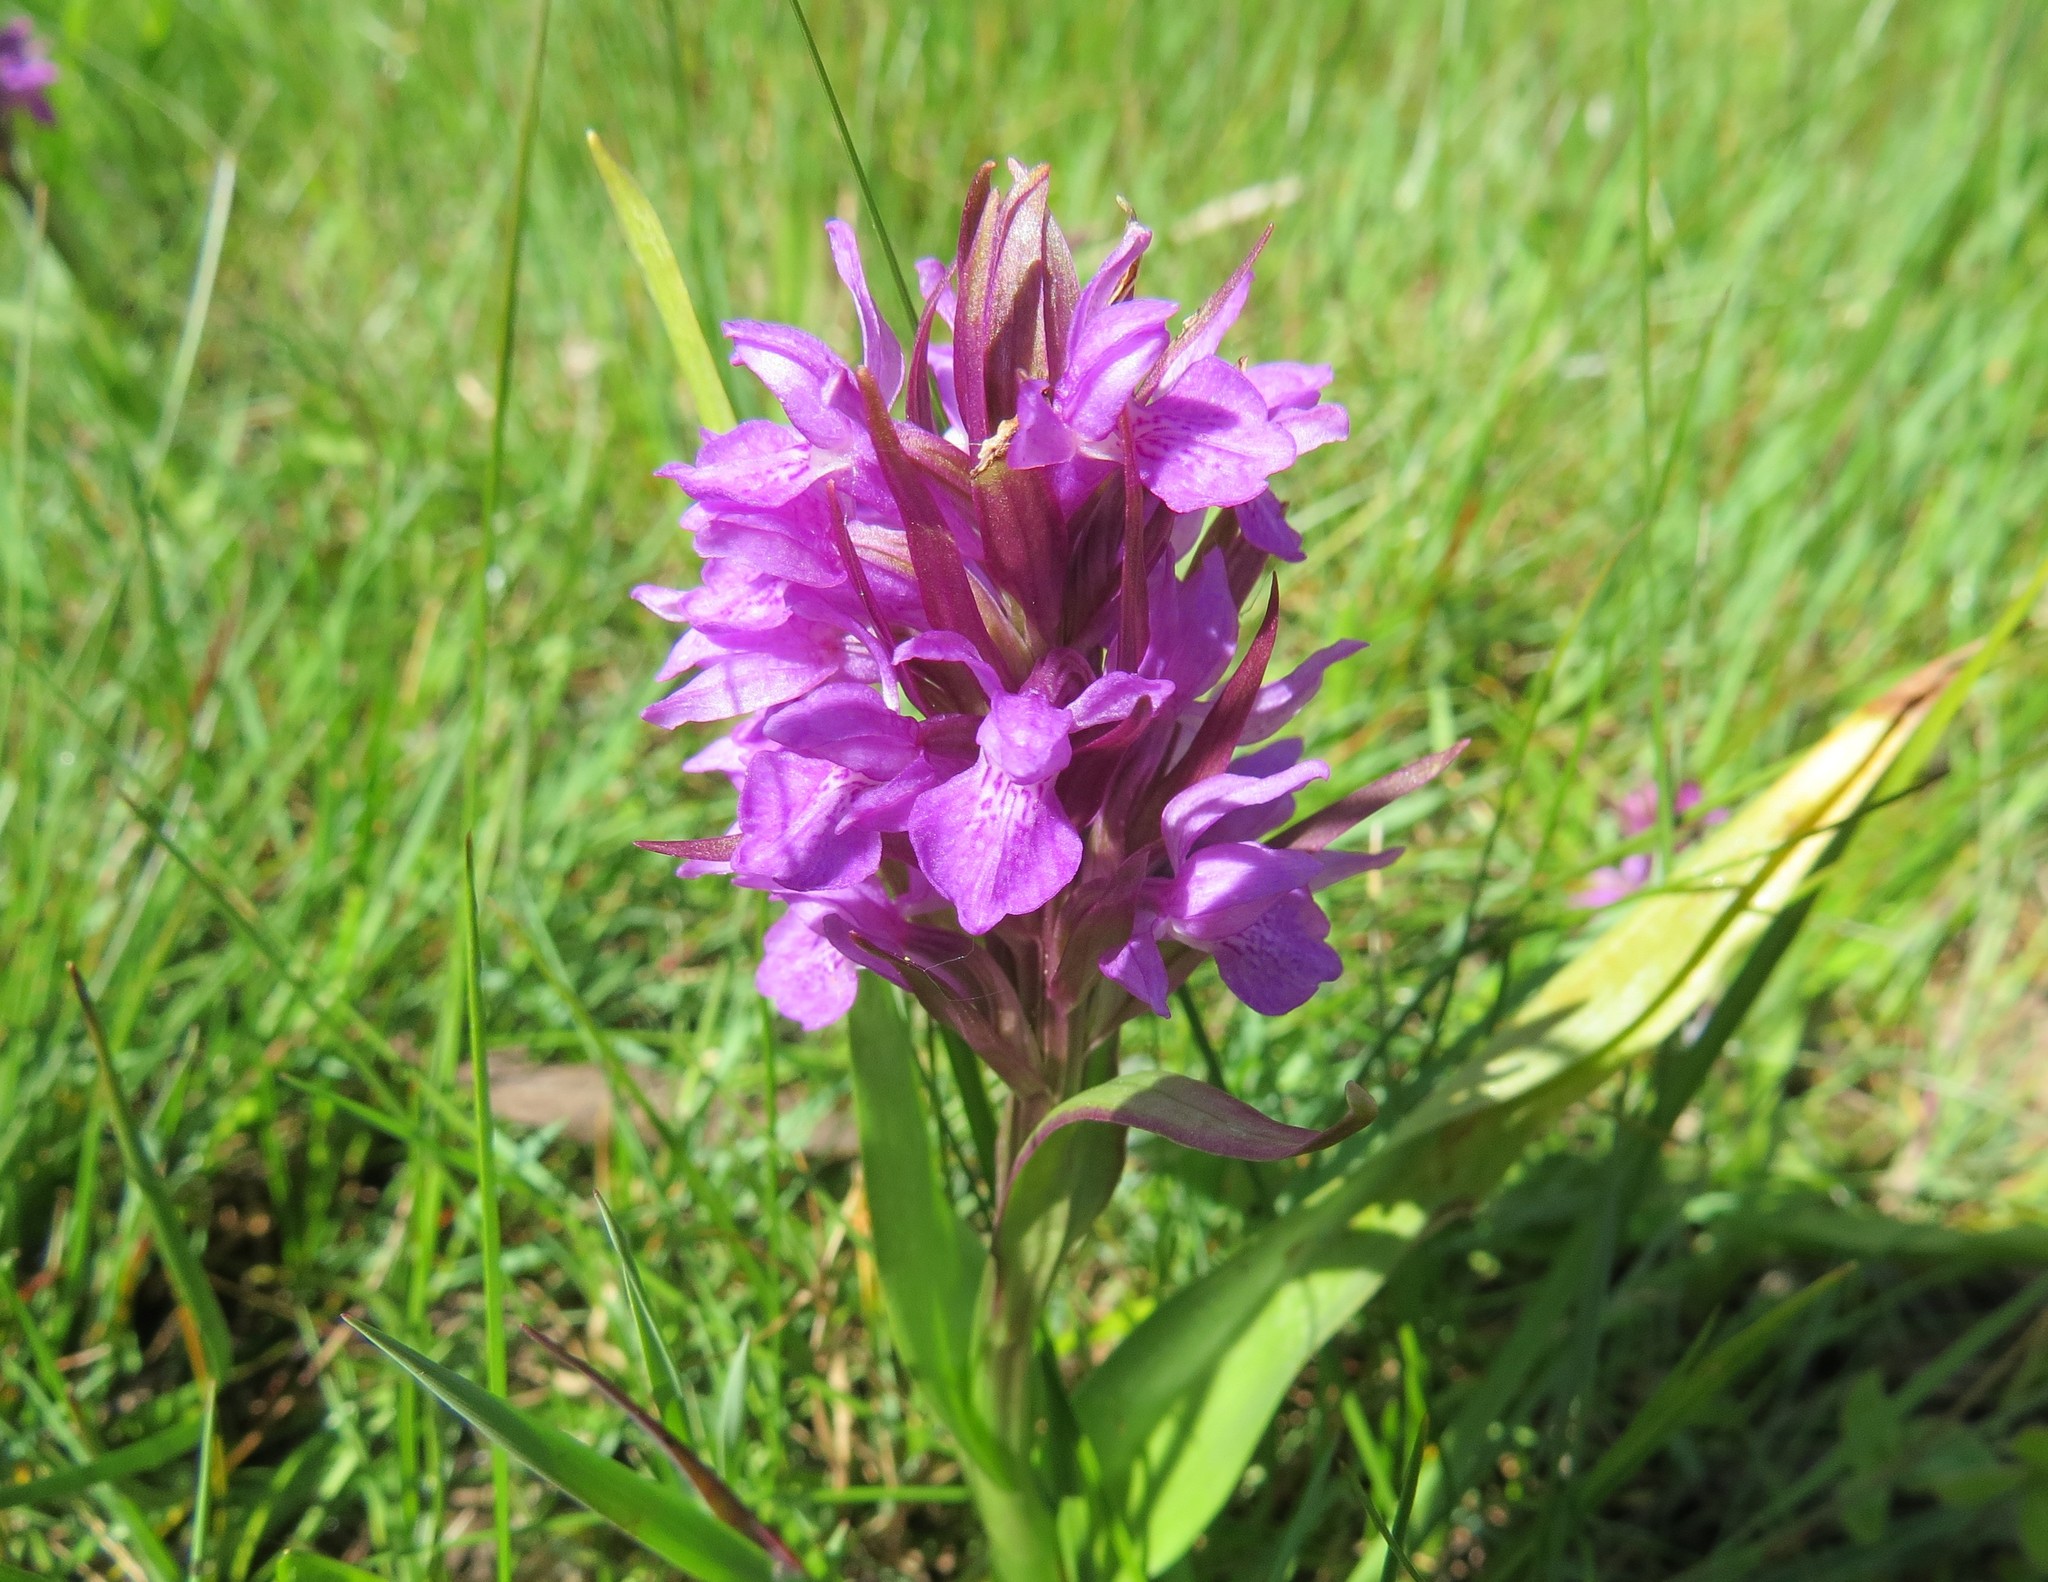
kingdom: Plantae
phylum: Tracheophyta
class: Liliopsida
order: Asparagales
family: Orchidaceae
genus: Dactylorhiza
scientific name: Dactylorhiza majalis
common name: Marsh orchid
